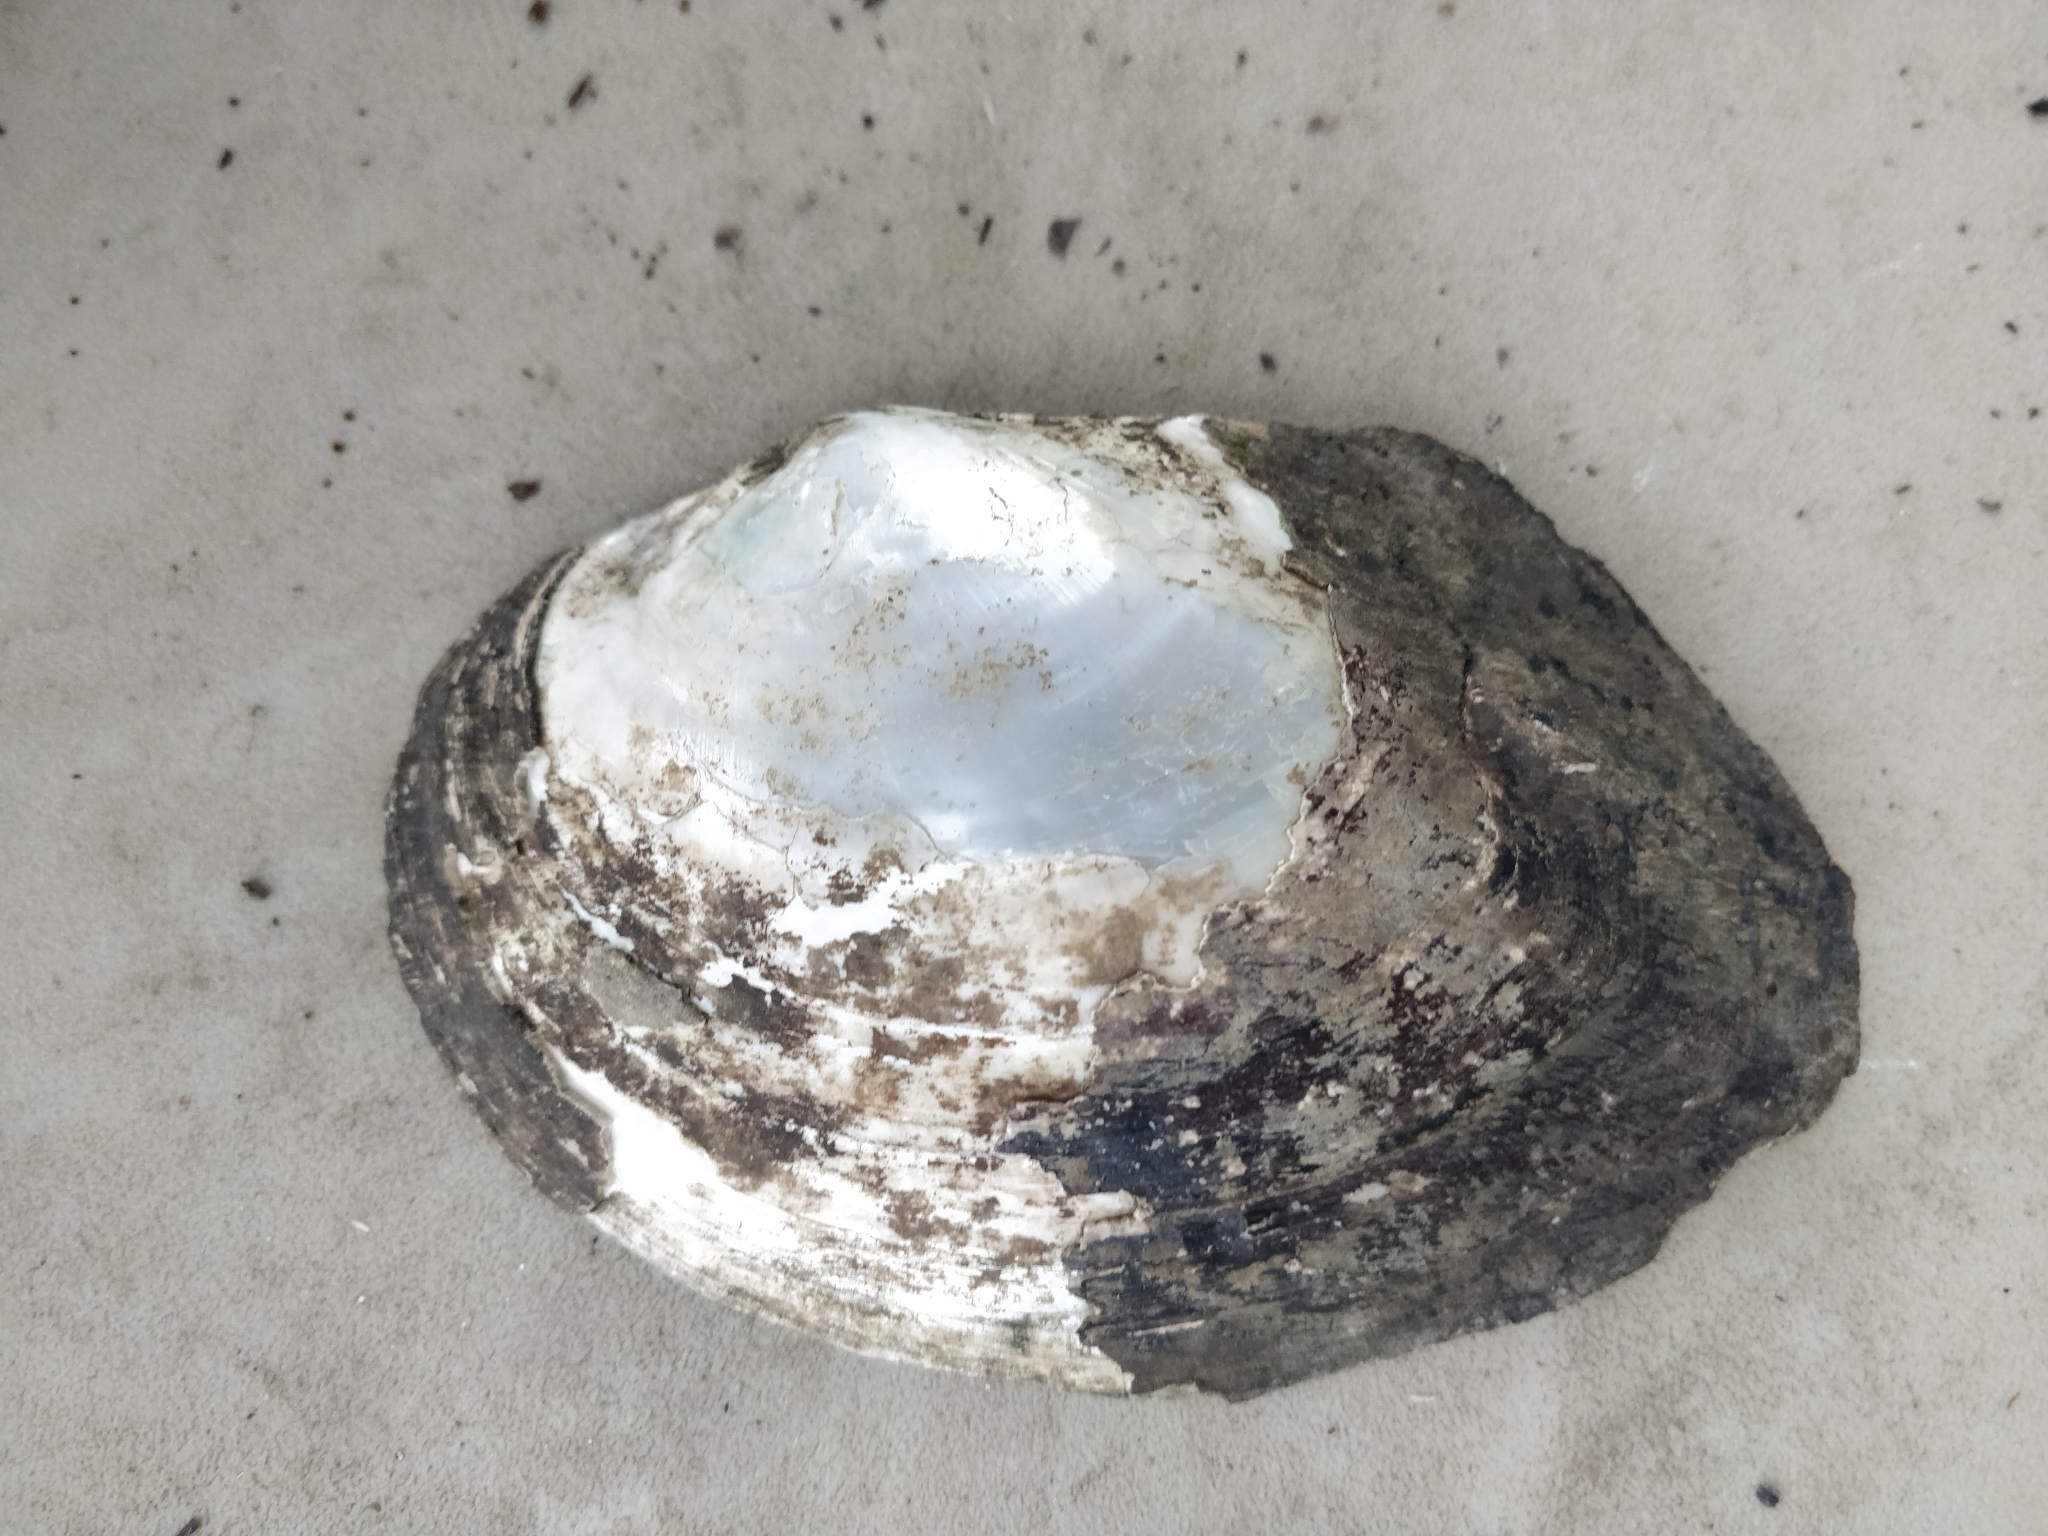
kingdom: Animalia
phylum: Mollusca
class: Bivalvia
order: Unionida
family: Unionidae
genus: Lasmigona
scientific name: Lasmigona complanata
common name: White heelsplitter
